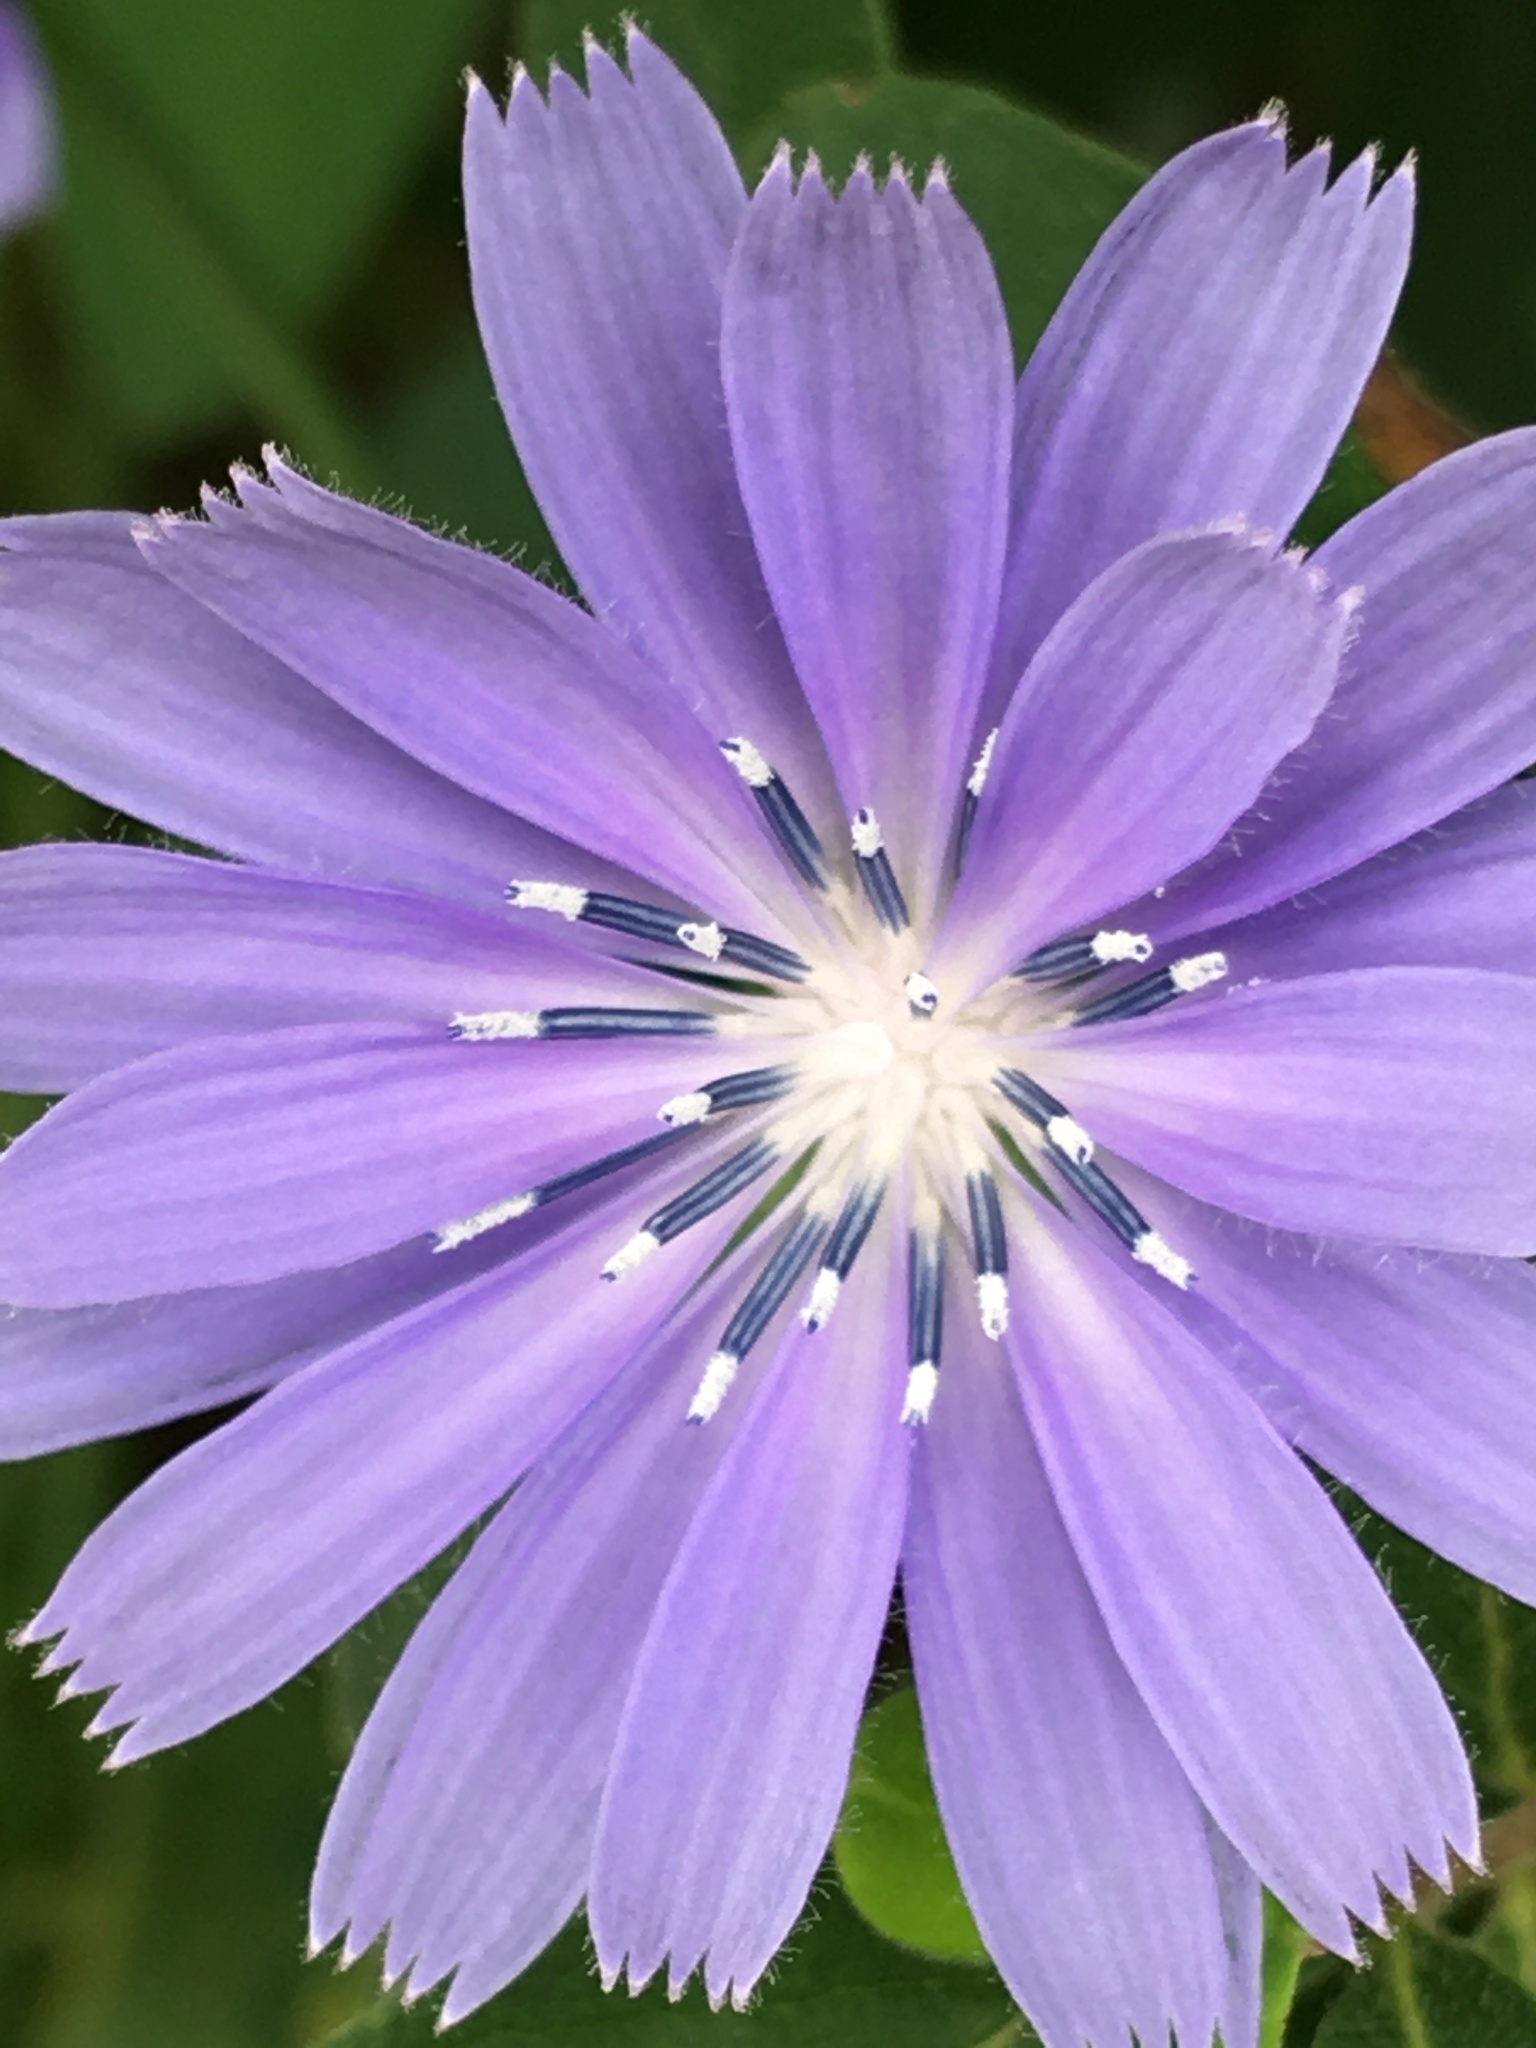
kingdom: Plantae
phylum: Tracheophyta
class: Magnoliopsida
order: Asterales
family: Asteraceae
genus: Cichorium
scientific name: Cichorium intybus
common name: Chicory
